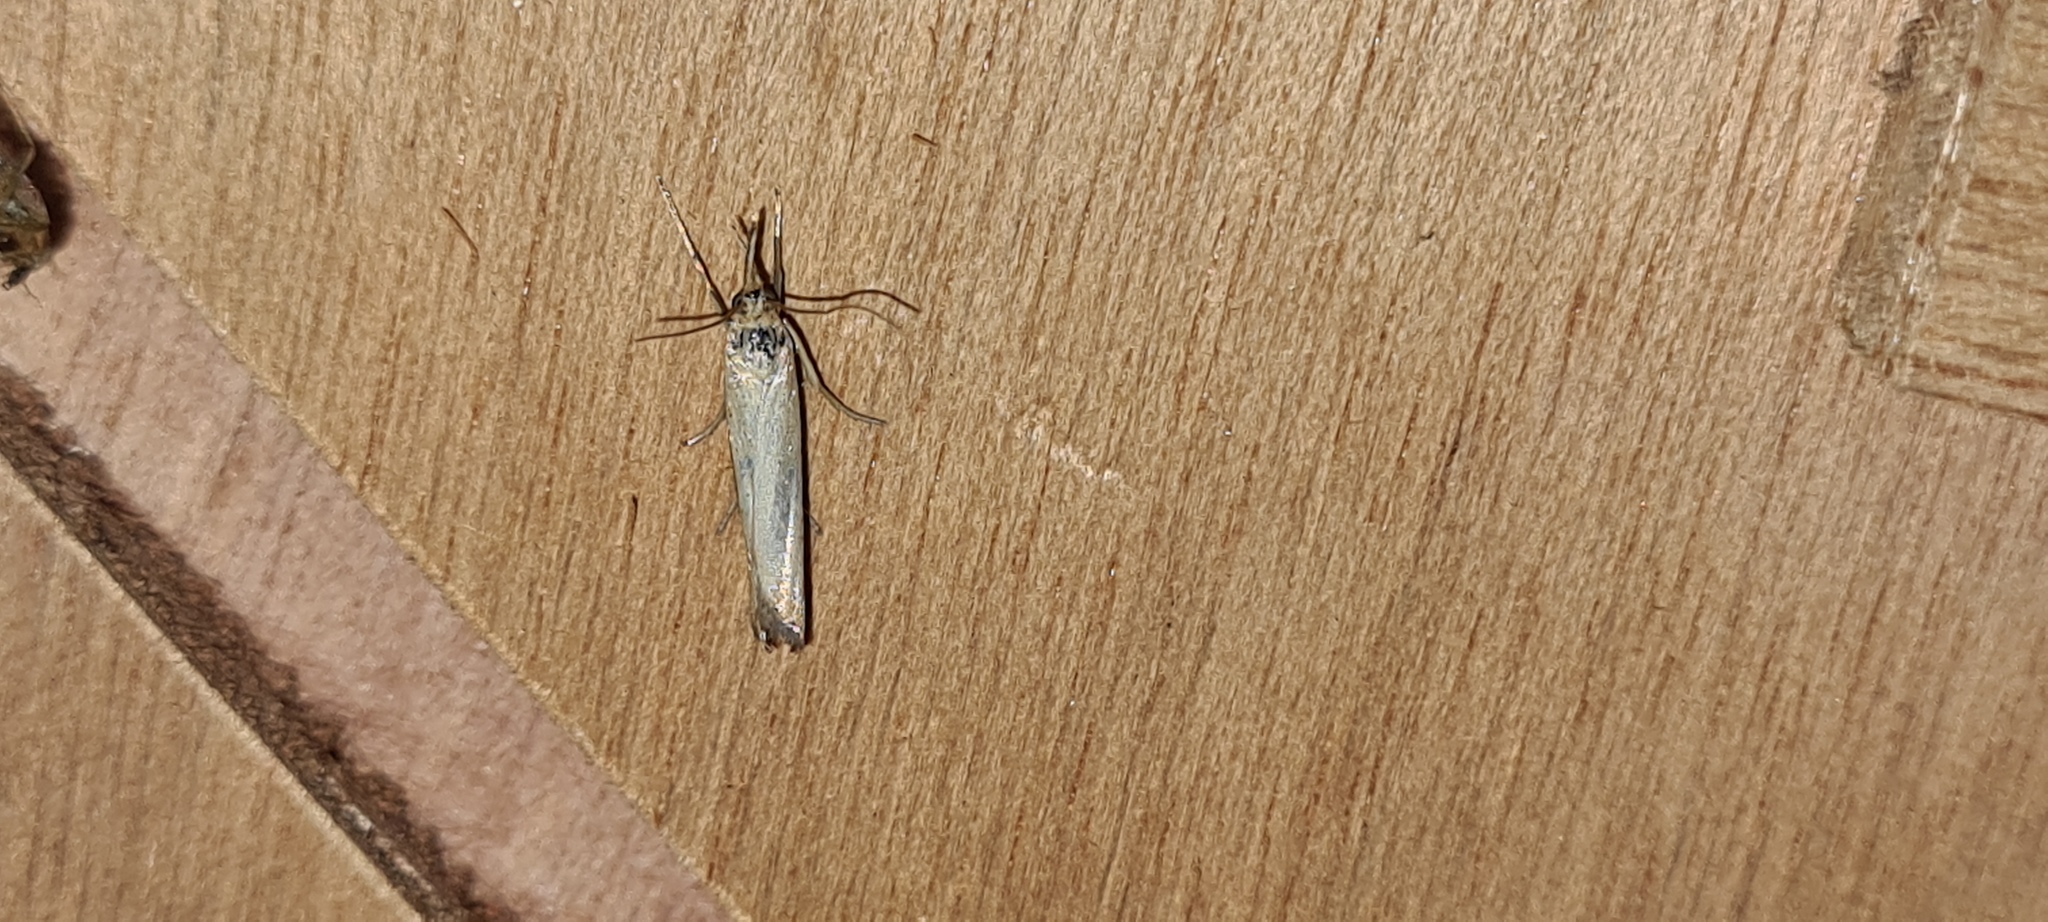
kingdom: Animalia
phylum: Arthropoda
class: Insecta
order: Lepidoptera
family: Crambidae
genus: Crambus
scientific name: Crambus perlellus
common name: Yellow satin veneer
